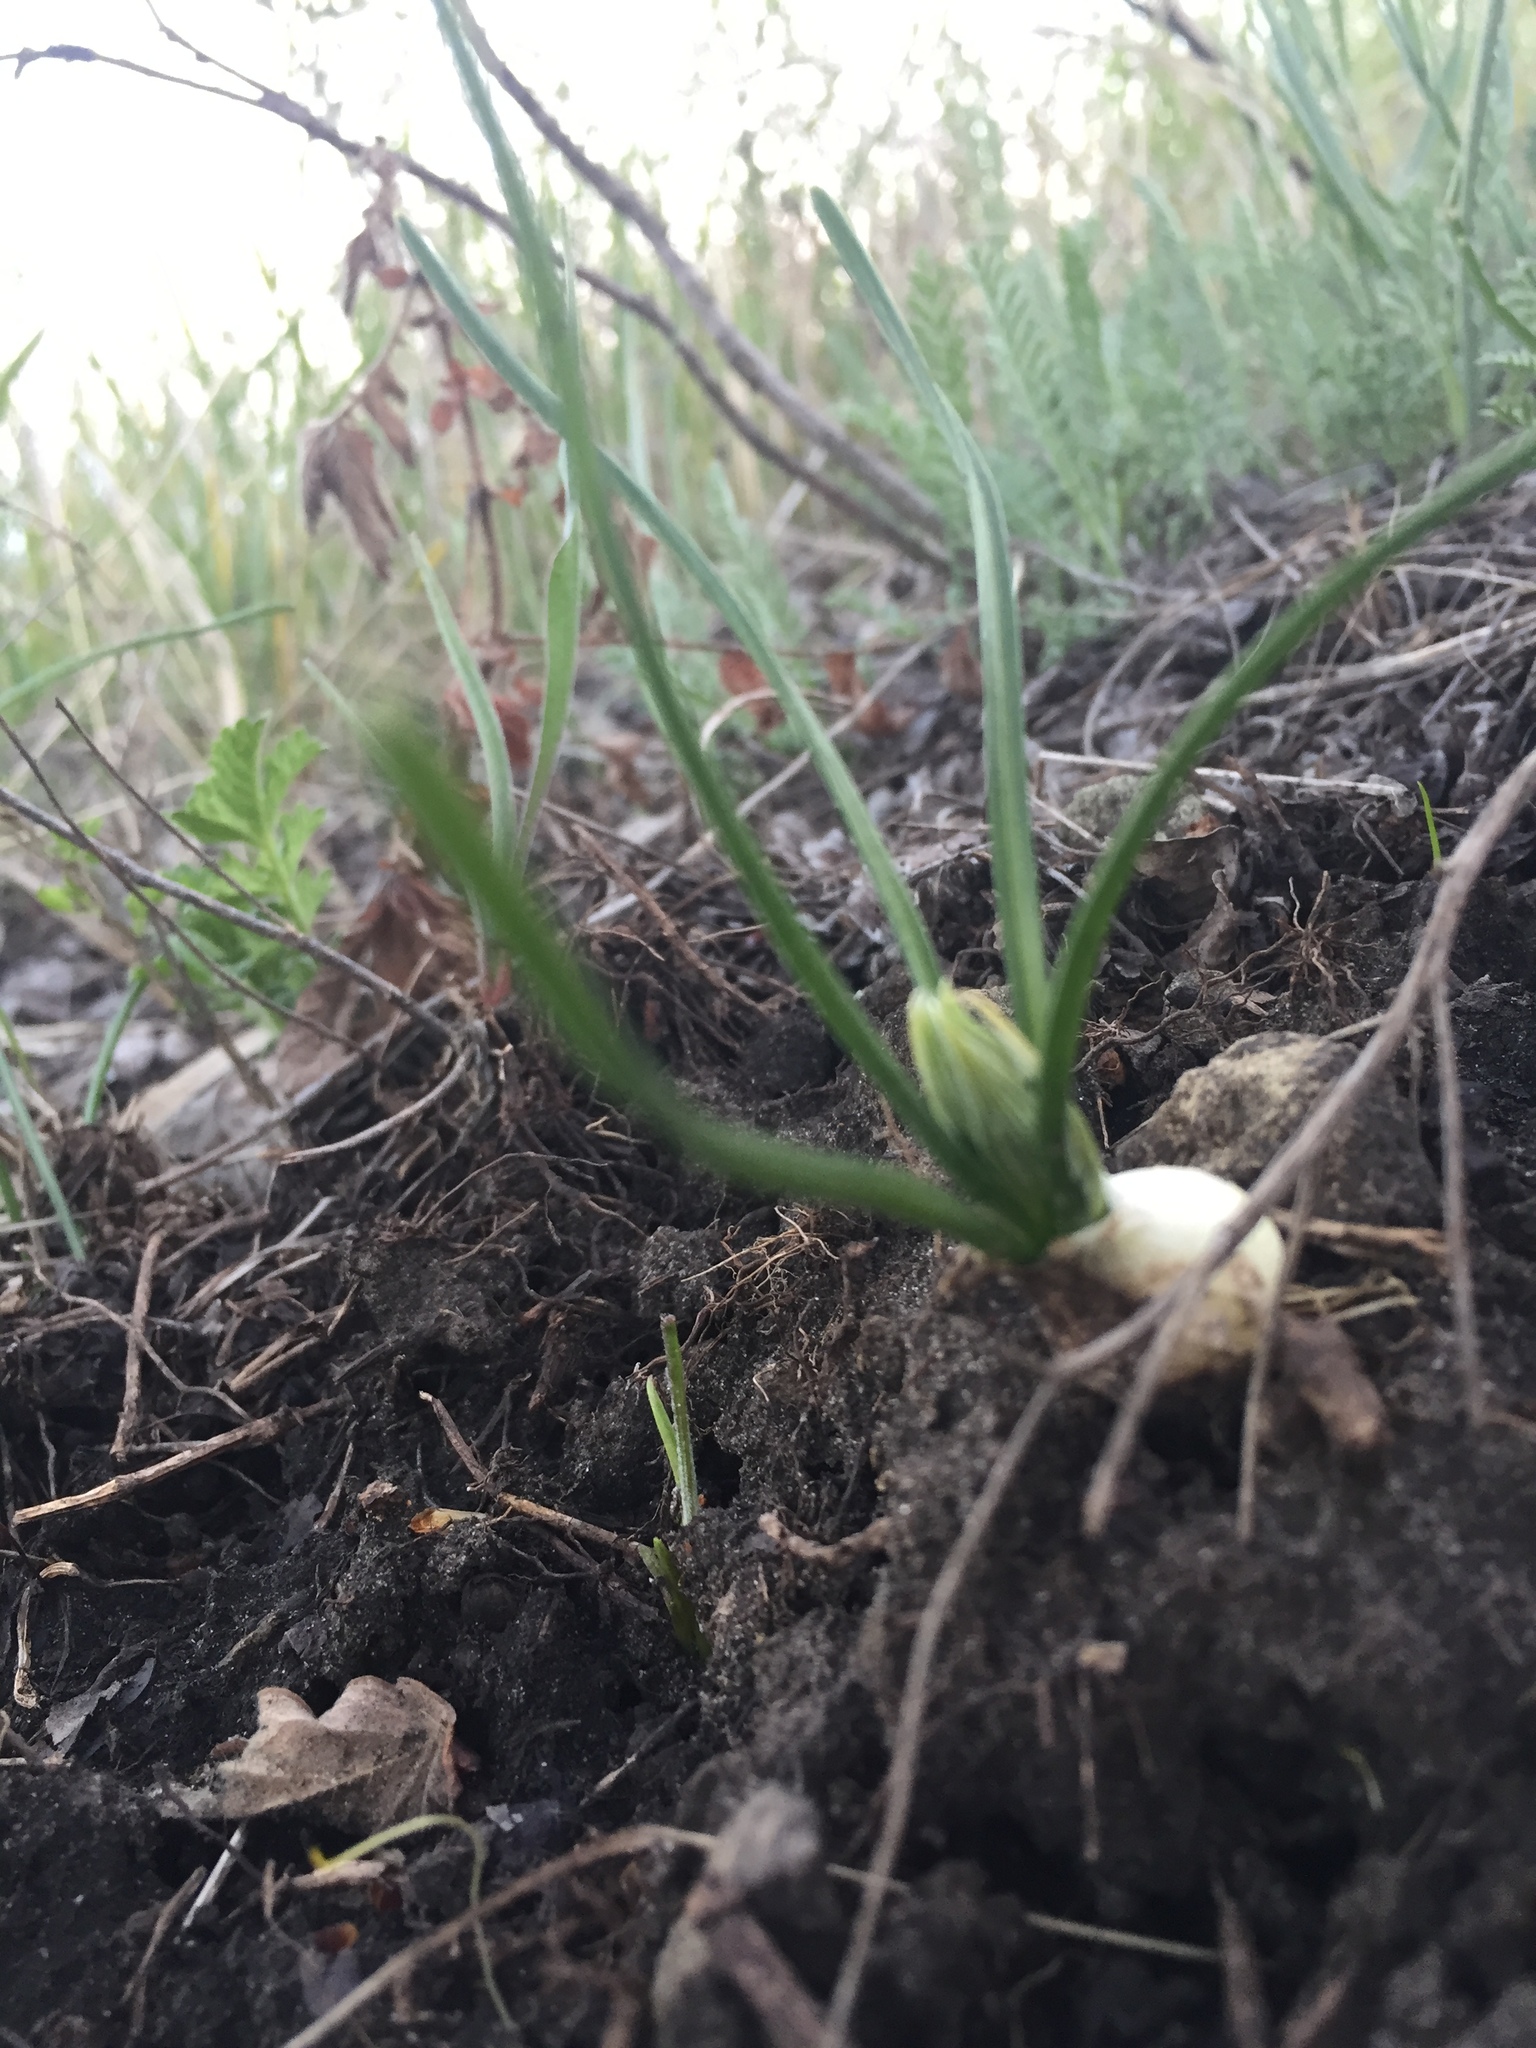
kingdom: Plantae
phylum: Tracheophyta
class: Liliopsida
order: Asparagales
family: Asparagaceae
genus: Ornithogalum
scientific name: Ornithogalum orthophyllum
